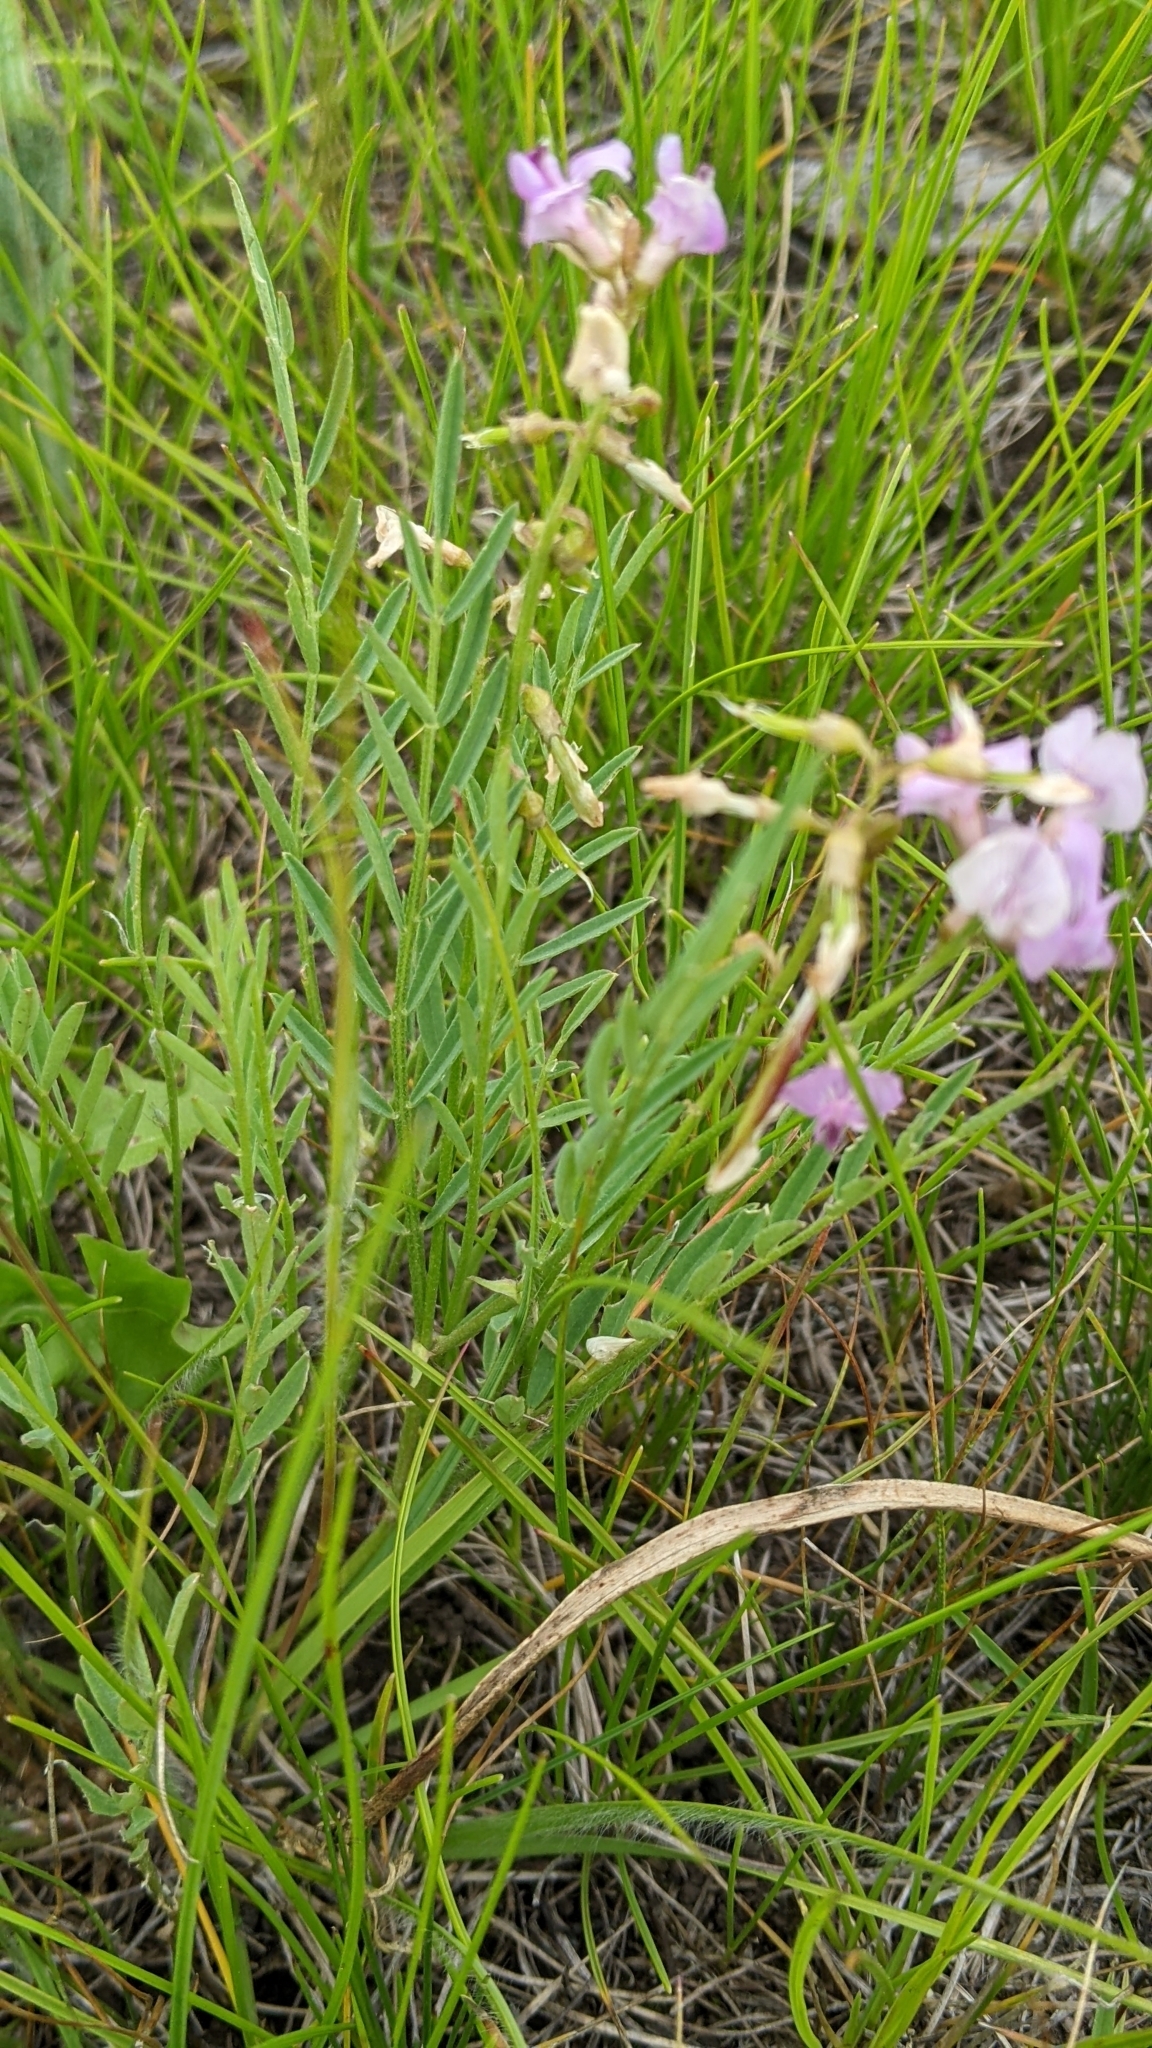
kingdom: Plantae
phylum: Tracheophyta
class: Magnoliopsida
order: Fabales
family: Fabaceae
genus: Astragalus
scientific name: Astragalus miser
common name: Timber milkvetch
